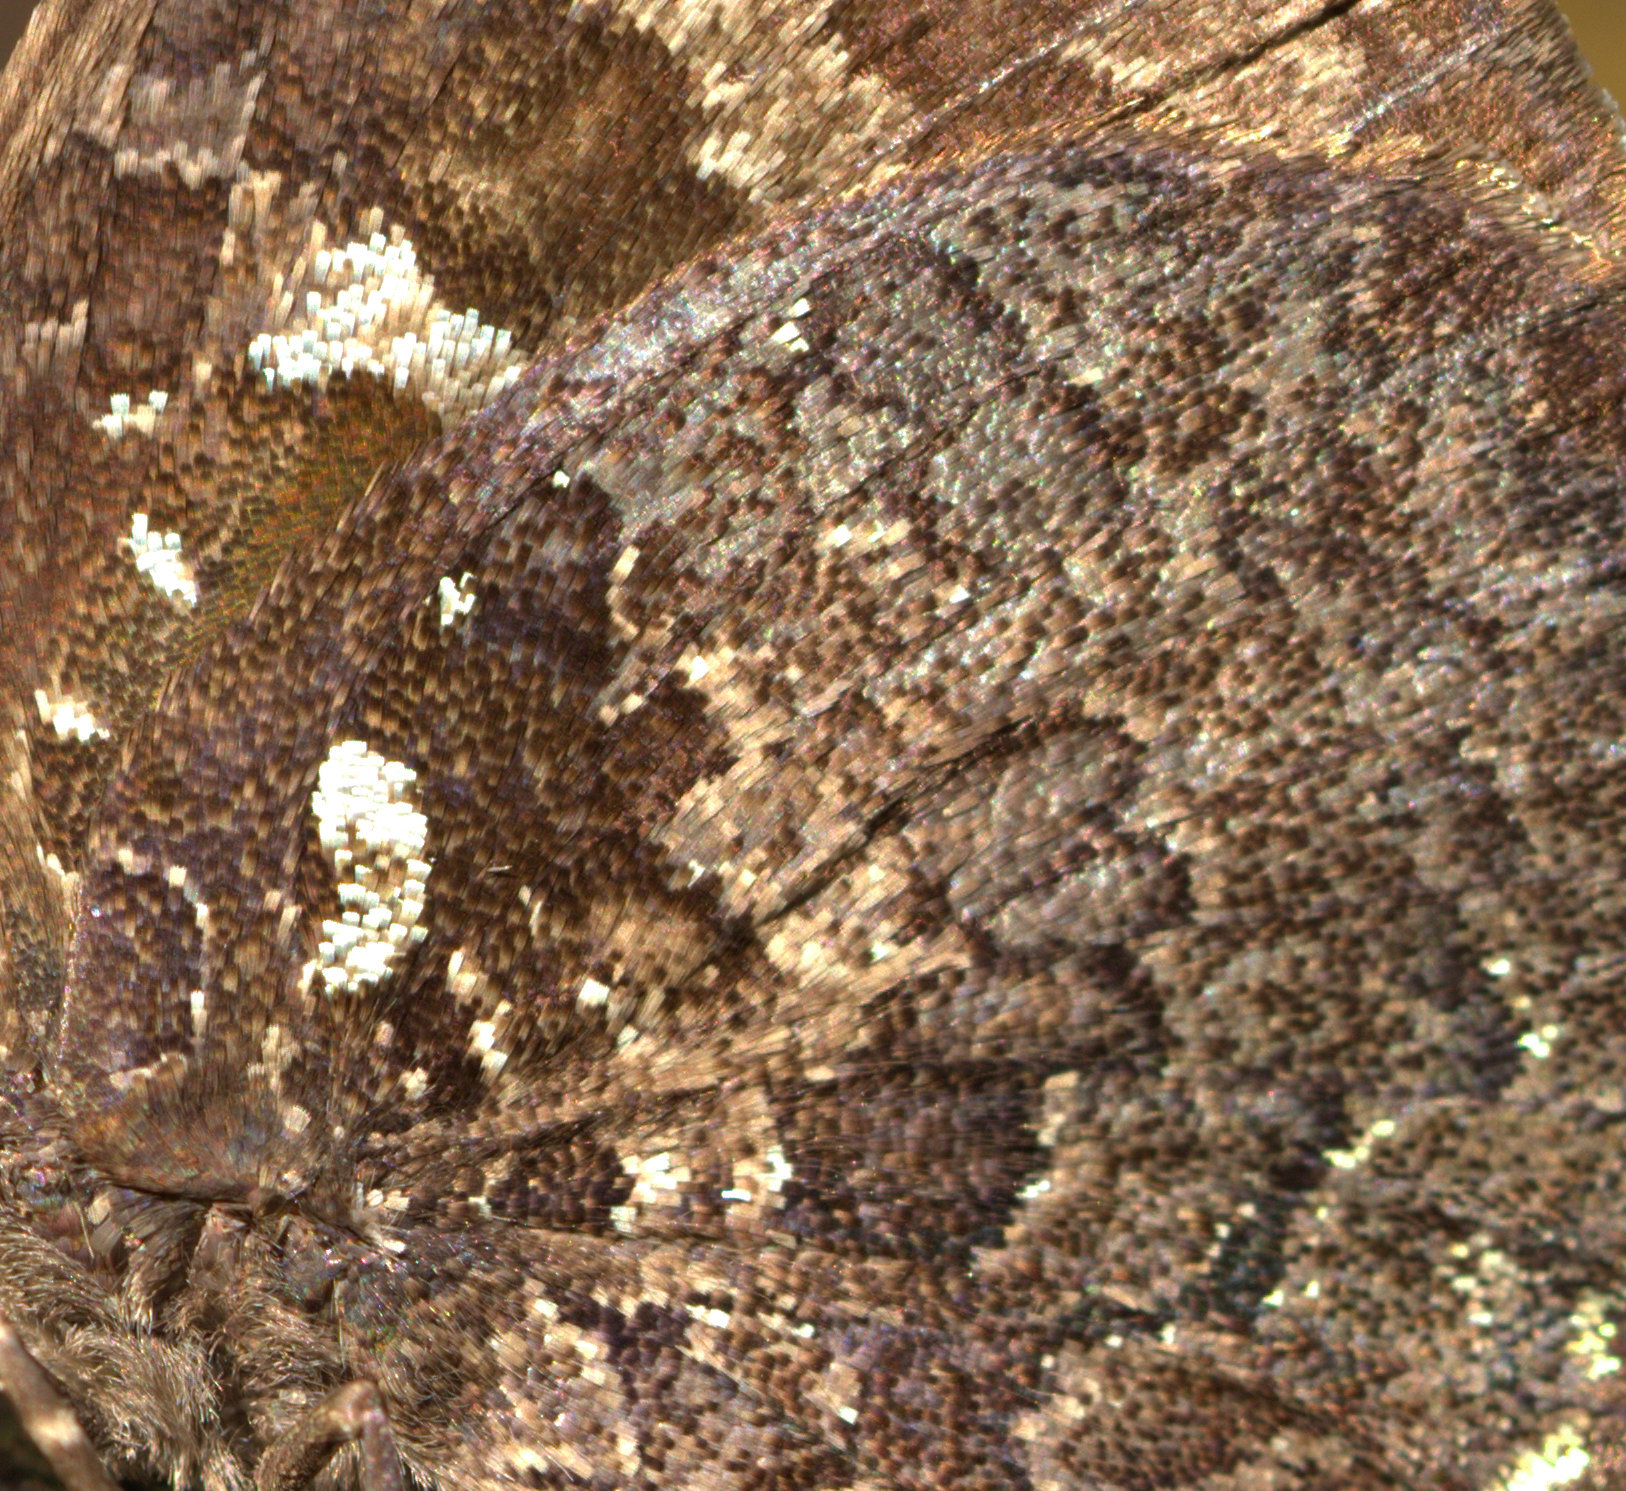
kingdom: Animalia
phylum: Arthropoda
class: Insecta
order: Lepidoptera
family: Lycaenidae
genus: Thaduka
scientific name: Thaduka multicaudata
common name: Many-tailed oakblue
